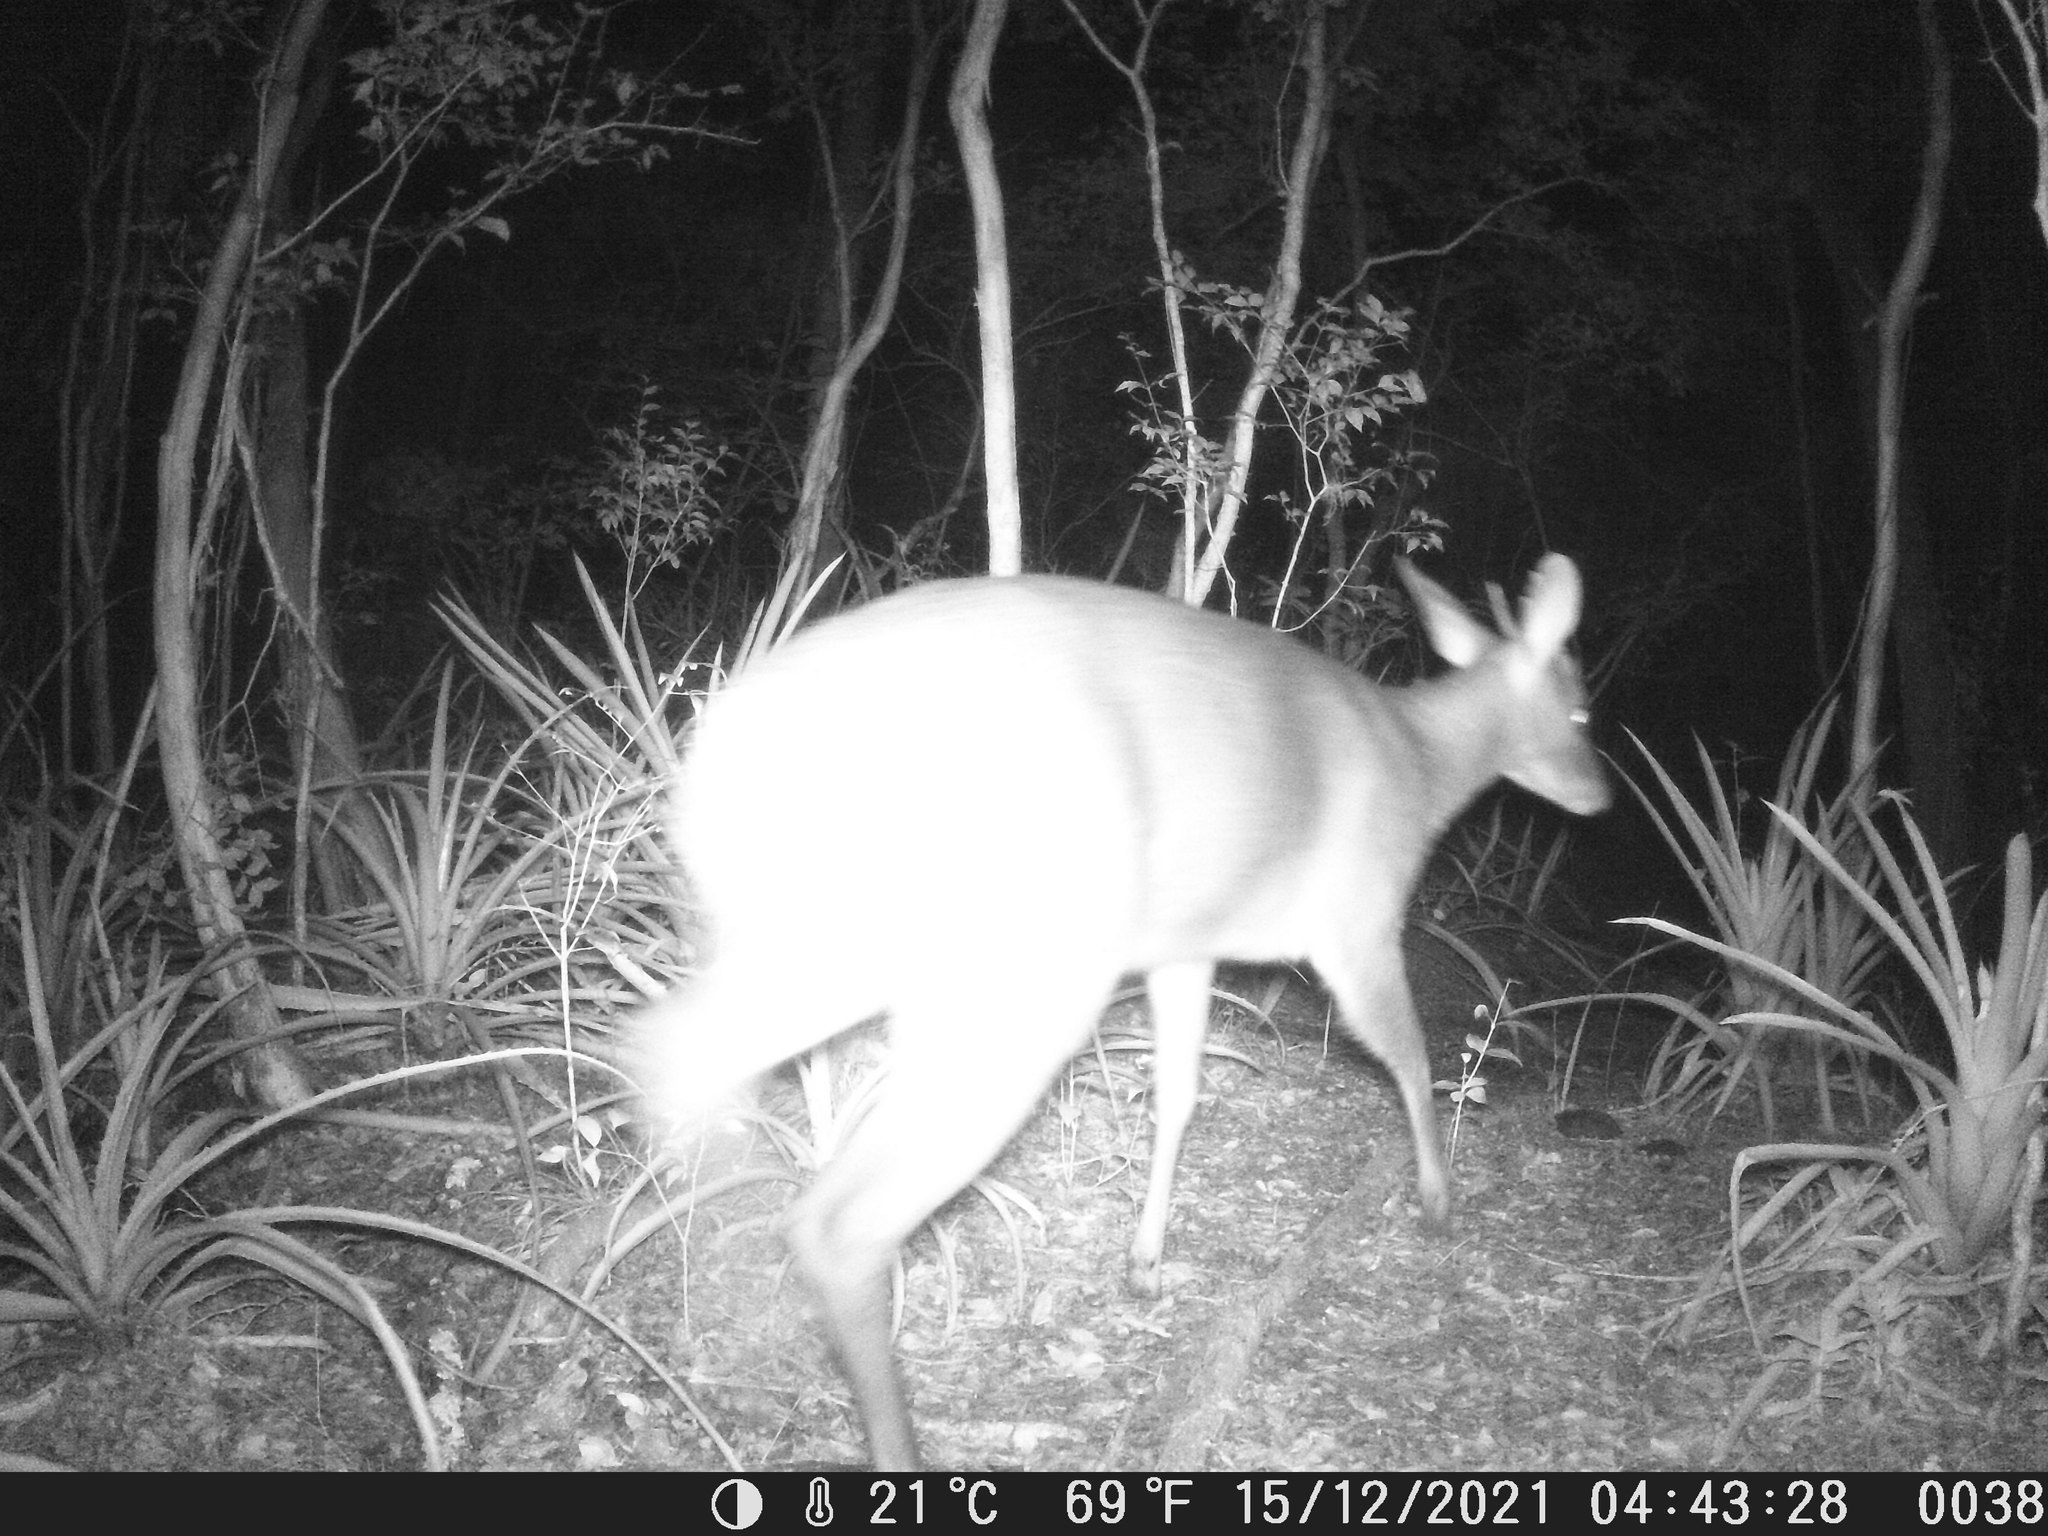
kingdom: Animalia
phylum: Chordata
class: Mammalia
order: Artiodactyla
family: Cervidae
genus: Mazama
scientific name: Mazama gouazoubira
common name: Gray brocket
